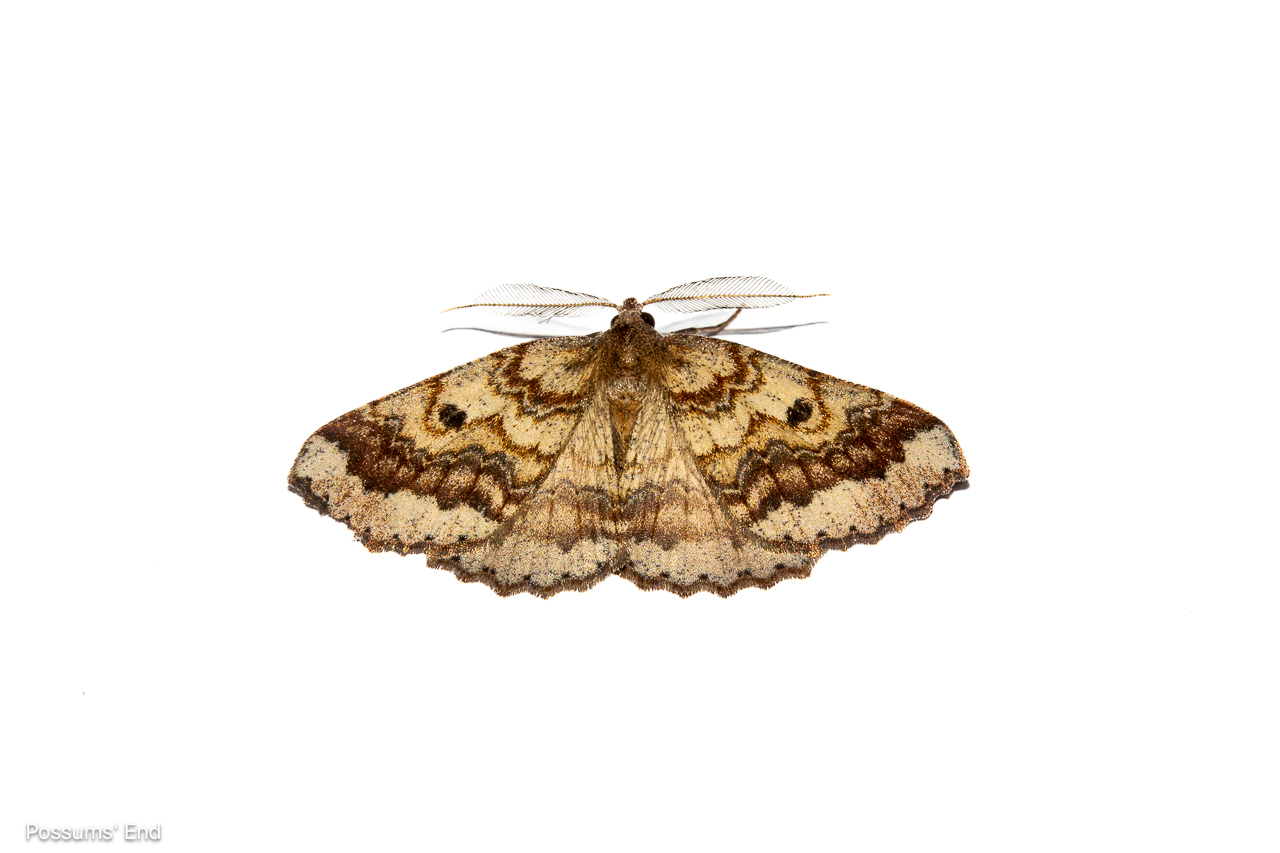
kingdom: Animalia
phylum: Arthropoda
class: Insecta
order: Lepidoptera
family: Geometridae
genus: Cleora
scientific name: Cleora scriptaria
